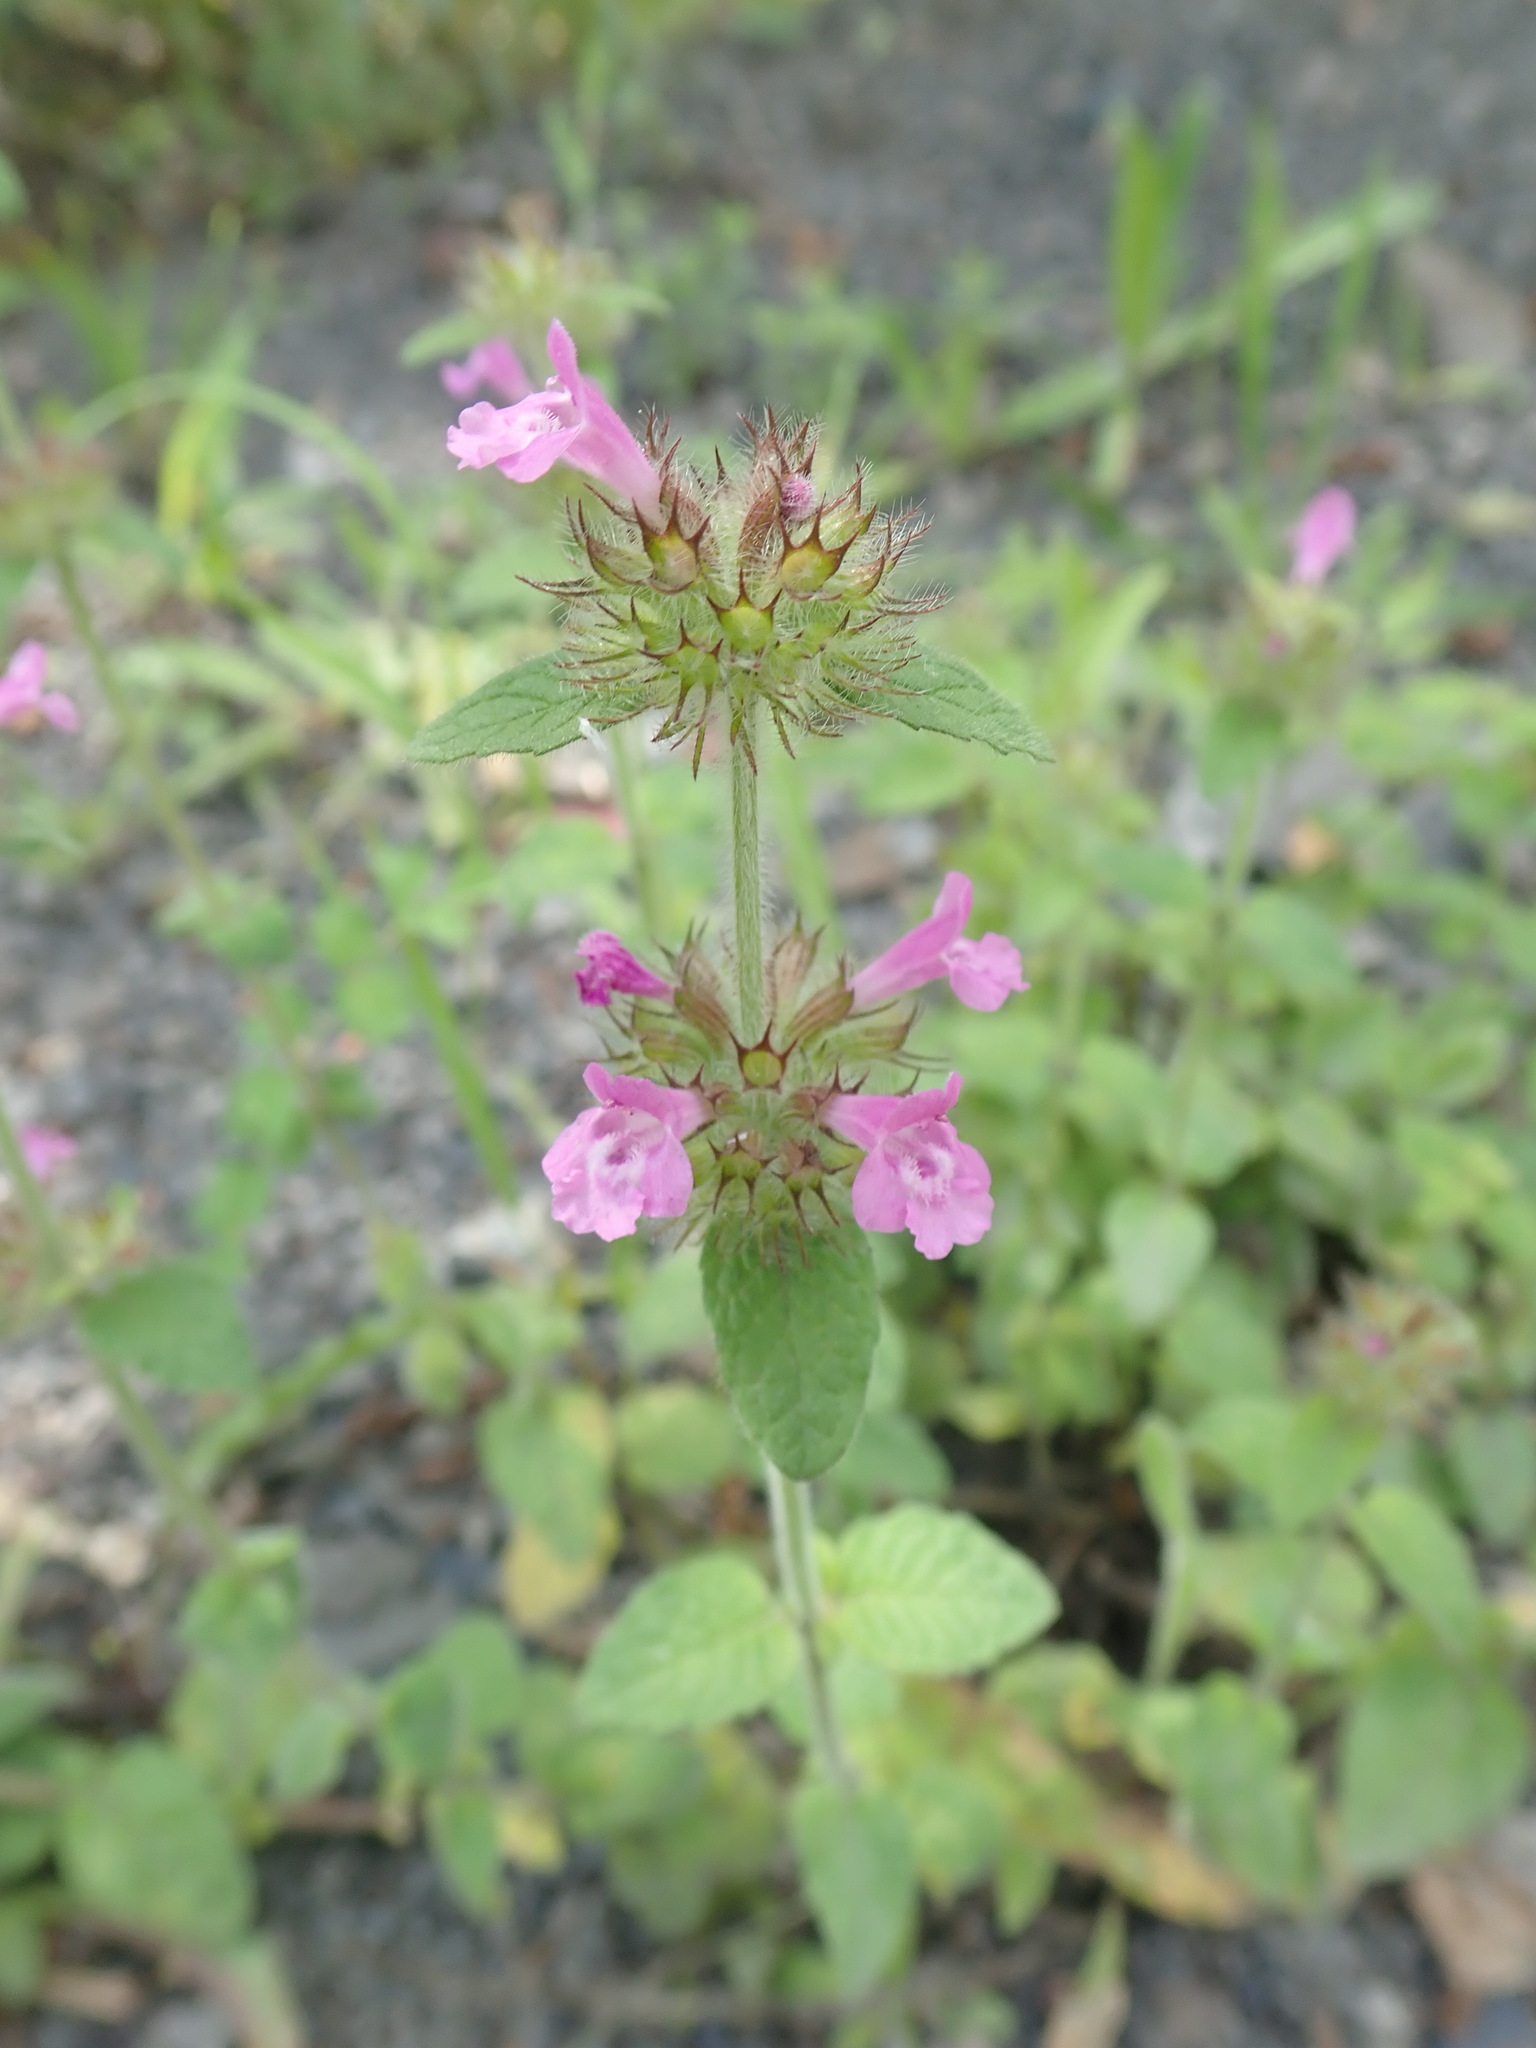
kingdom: Plantae
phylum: Tracheophyta
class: Magnoliopsida
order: Lamiales
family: Lamiaceae
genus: Clinopodium
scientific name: Clinopodium vulgare
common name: Wild basil
